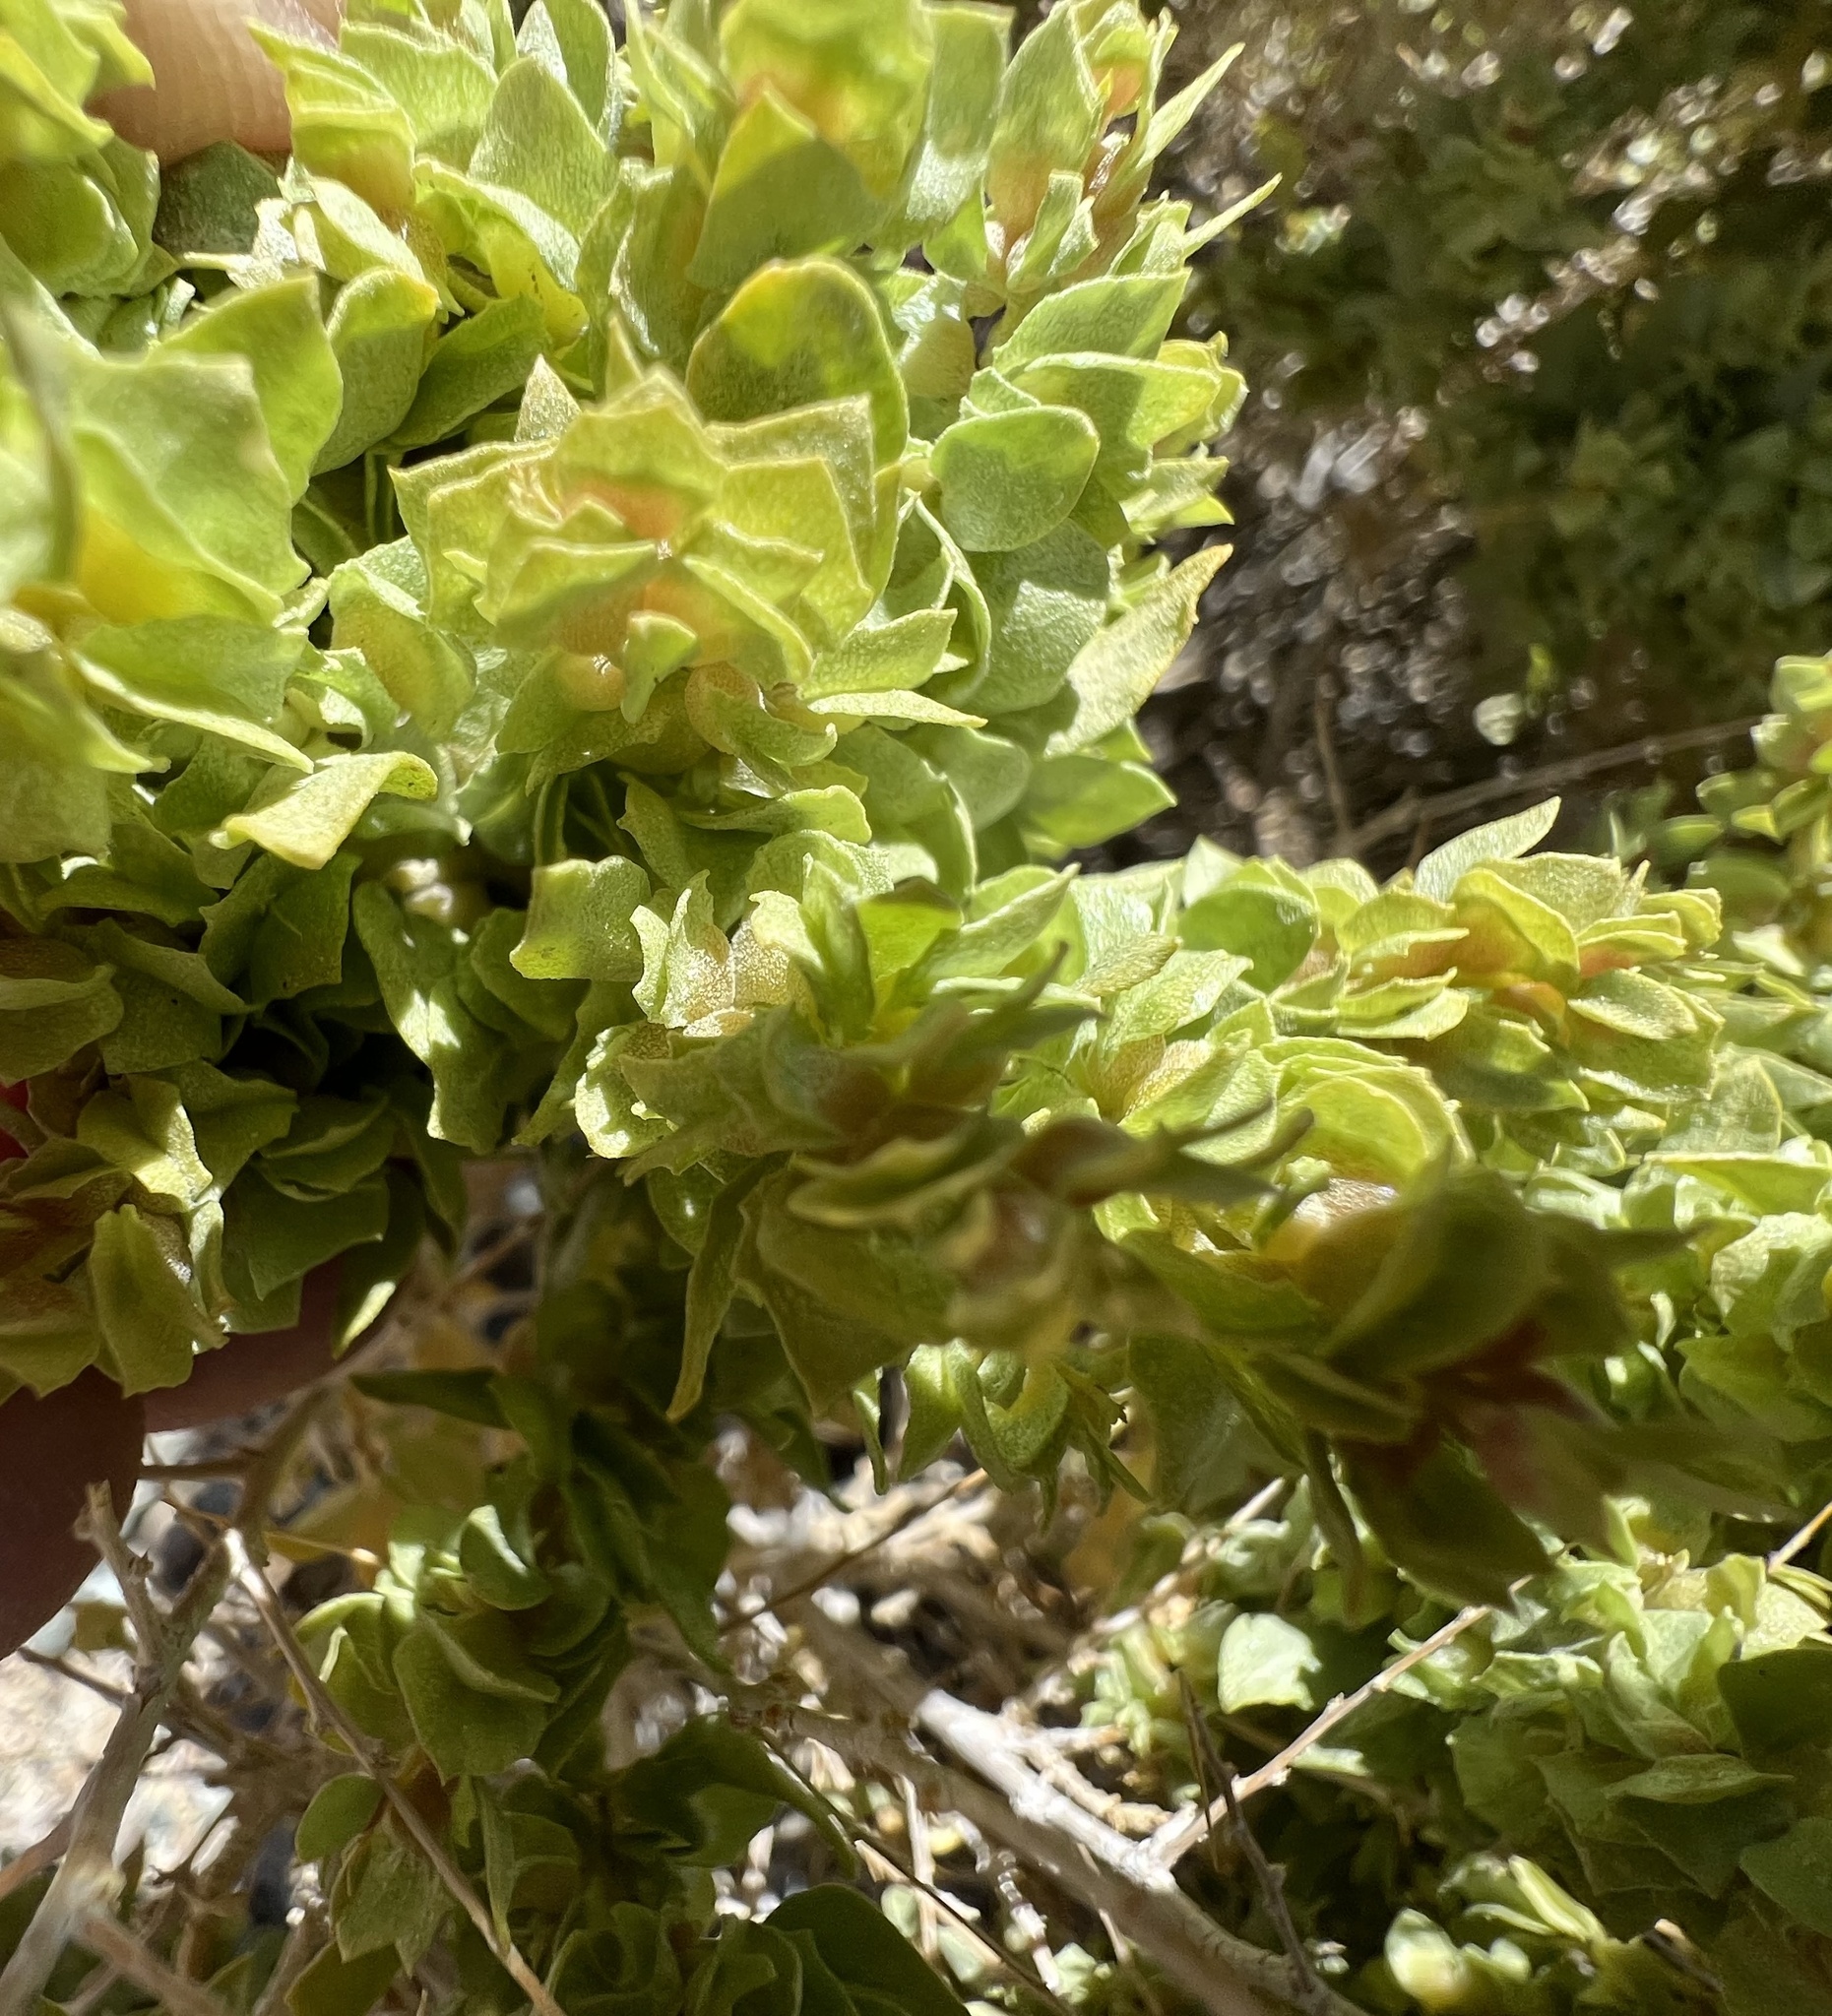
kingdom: Plantae
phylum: Tracheophyta
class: Magnoliopsida
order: Caryophyllales
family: Amaranthaceae
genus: Atriplex
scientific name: Atriplex confertifolia
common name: Shadscale
